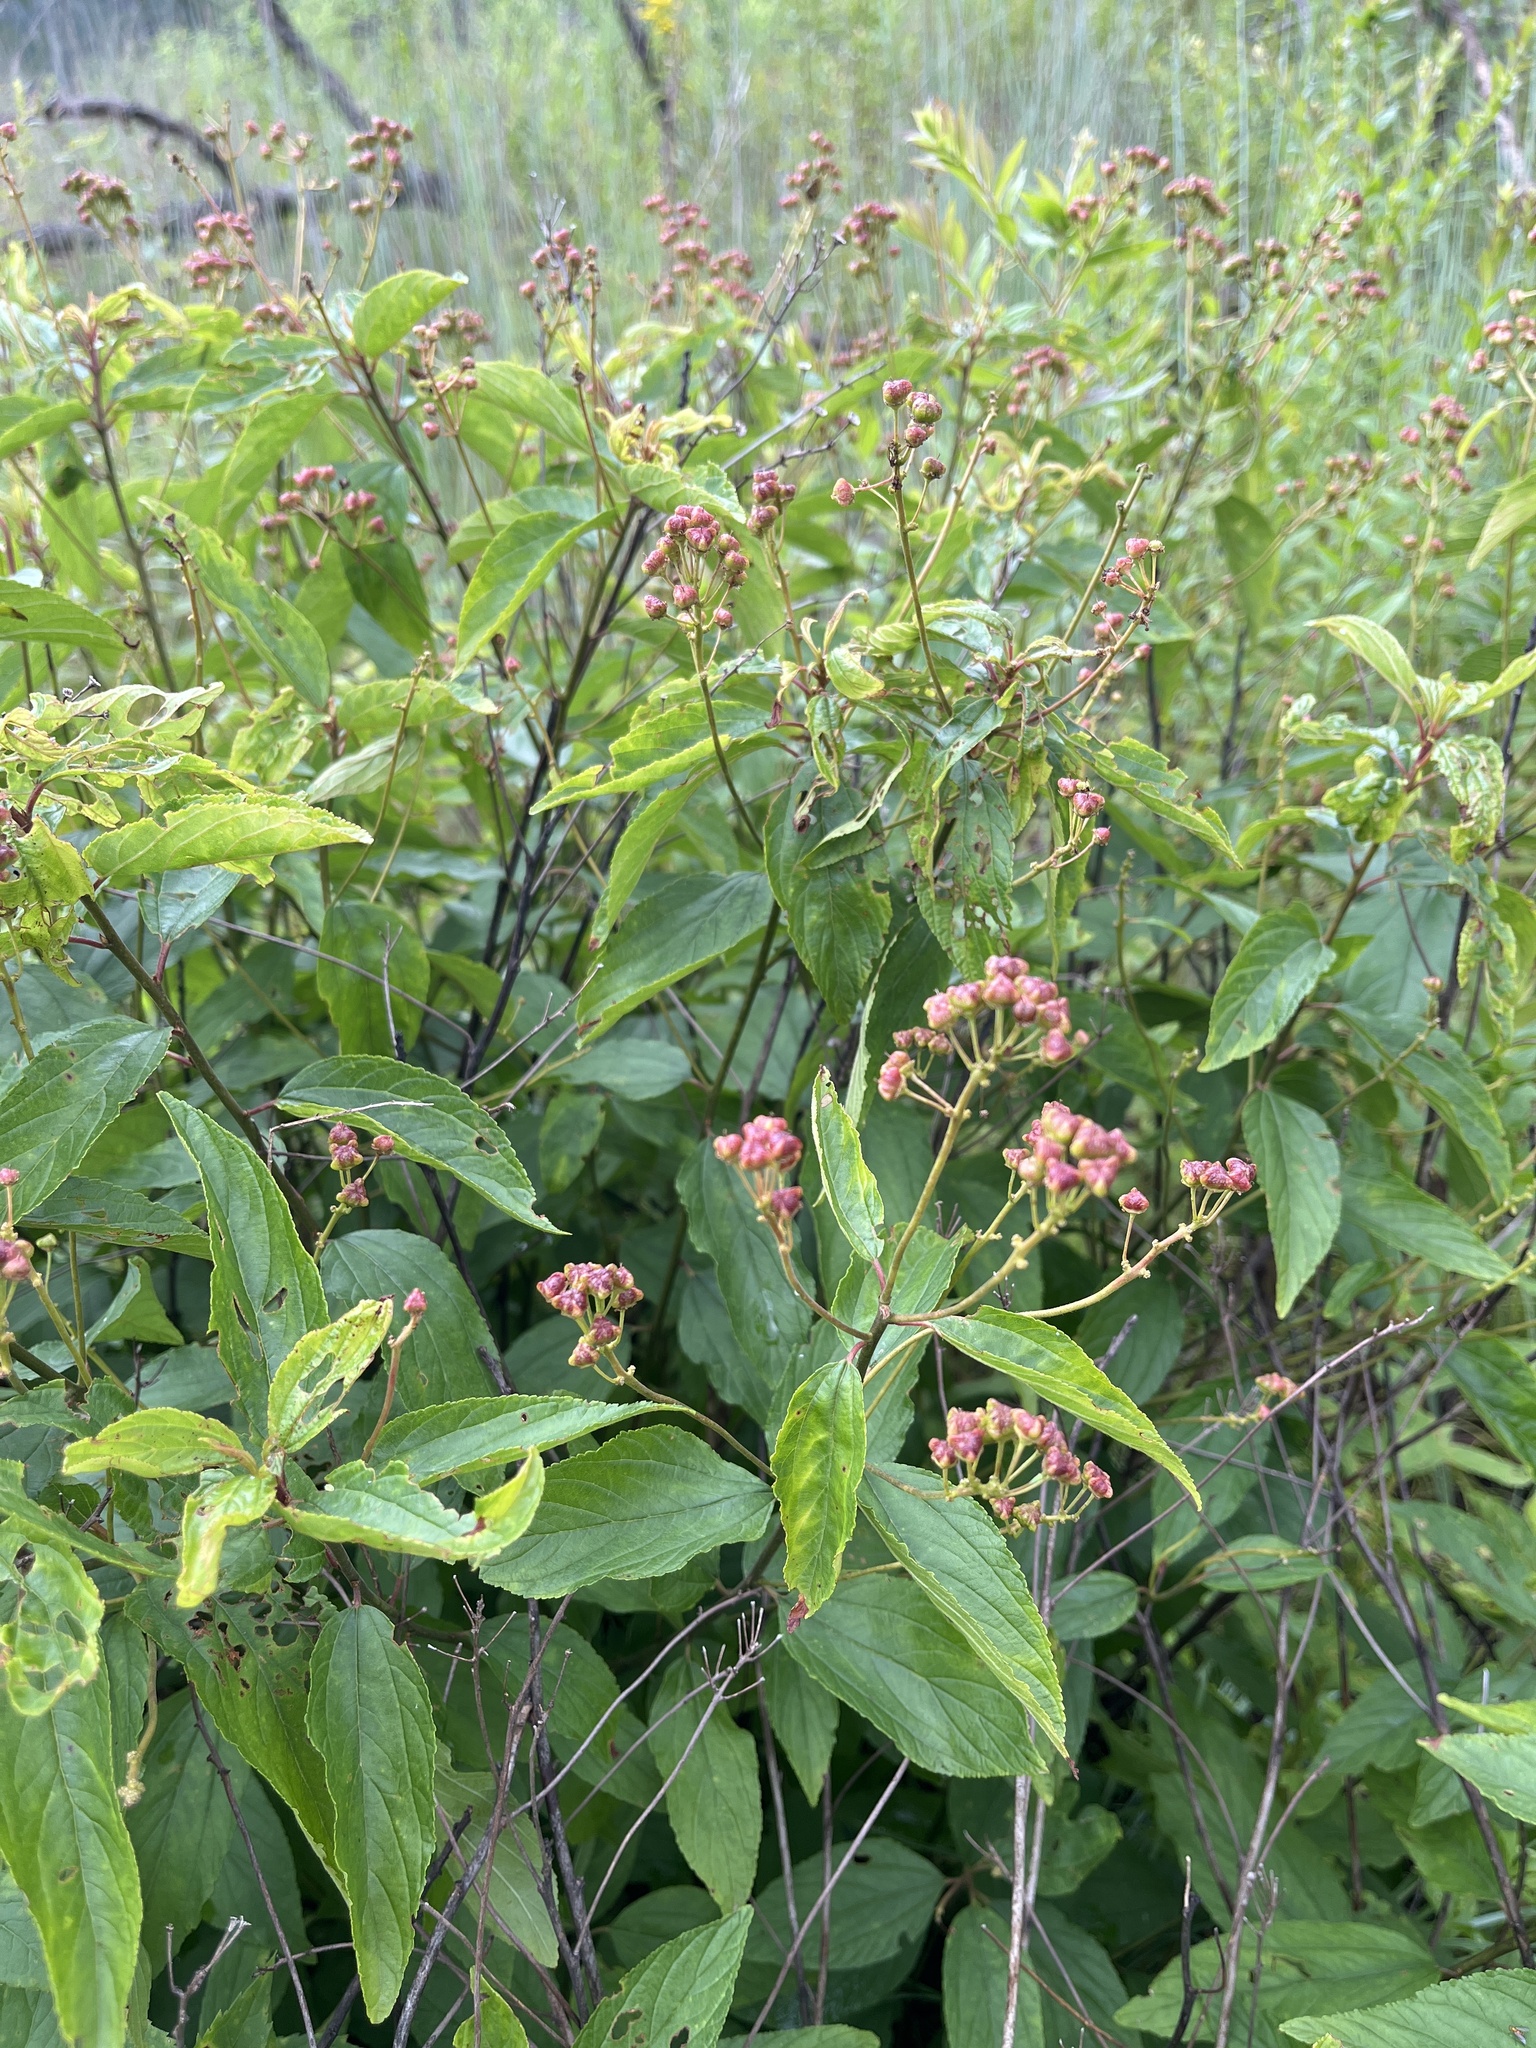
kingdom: Plantae
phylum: Tracheophyta
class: Magnoliopsida
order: Rosales
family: Rhamnaceae
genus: Ceanothus
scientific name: Ceanothus americanus
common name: Redroot
